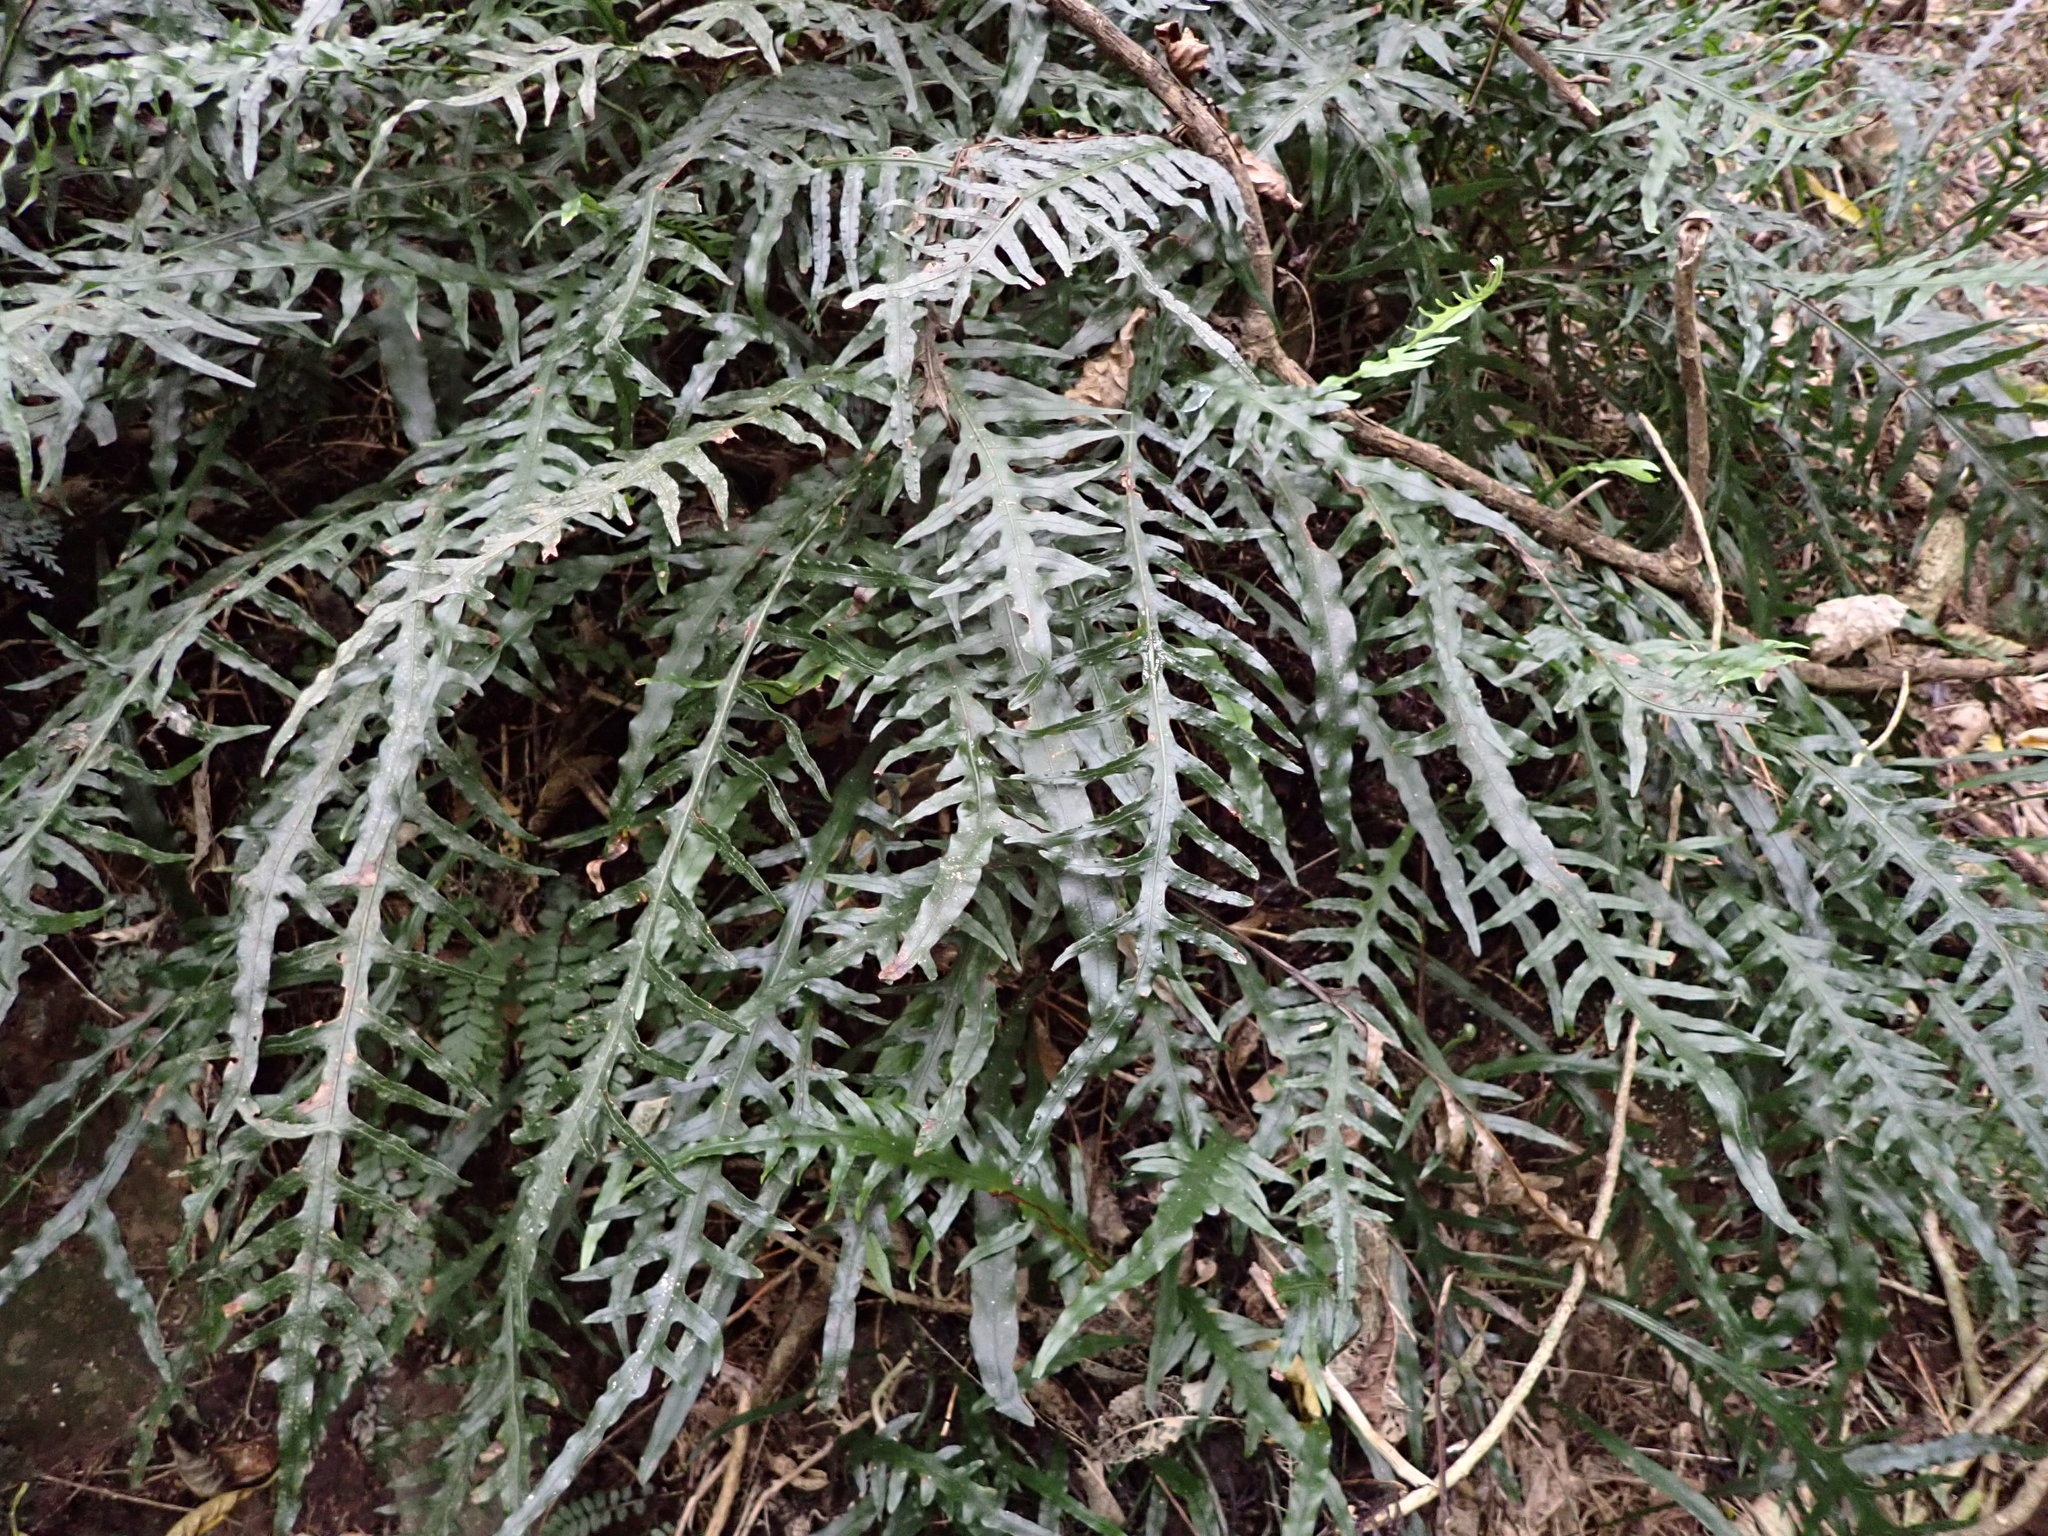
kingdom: Plantae
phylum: Tracheophyta
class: Polypodiopsida
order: Polypodiales
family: Polypodiaceae
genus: Lecanopteris
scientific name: Lecanopteris scandens
